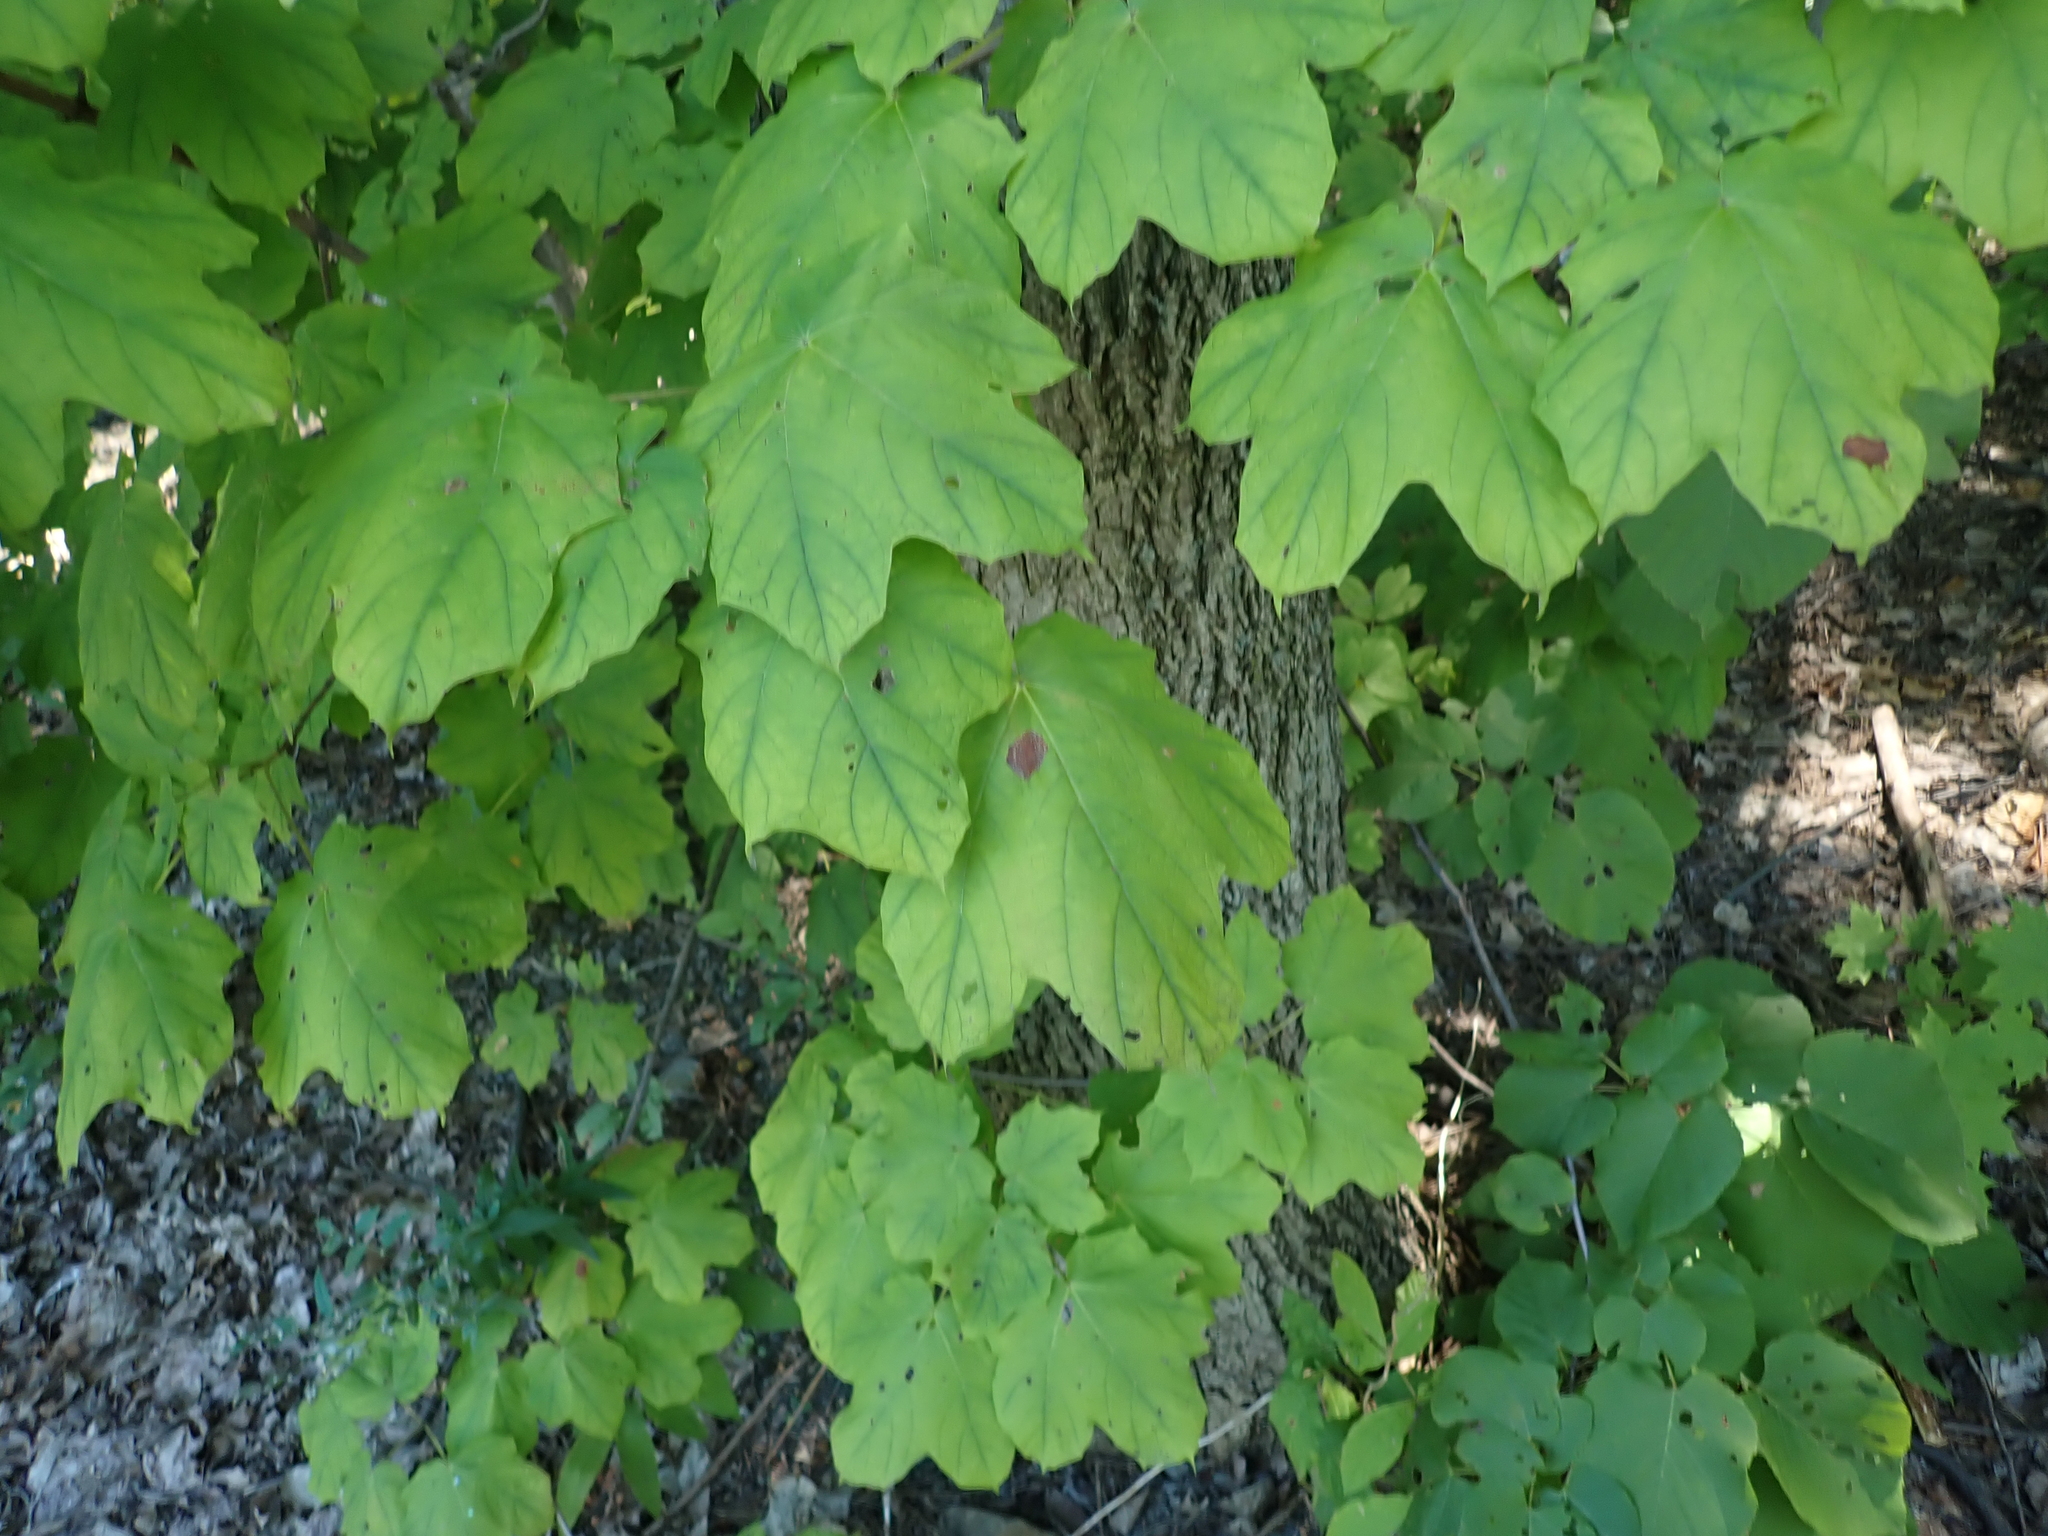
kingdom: Plantae
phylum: Tracheophyta
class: Magnoliopsida
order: Sapindales
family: Sapindaceae
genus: Acer
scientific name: Acer nigrum
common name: Black maple
